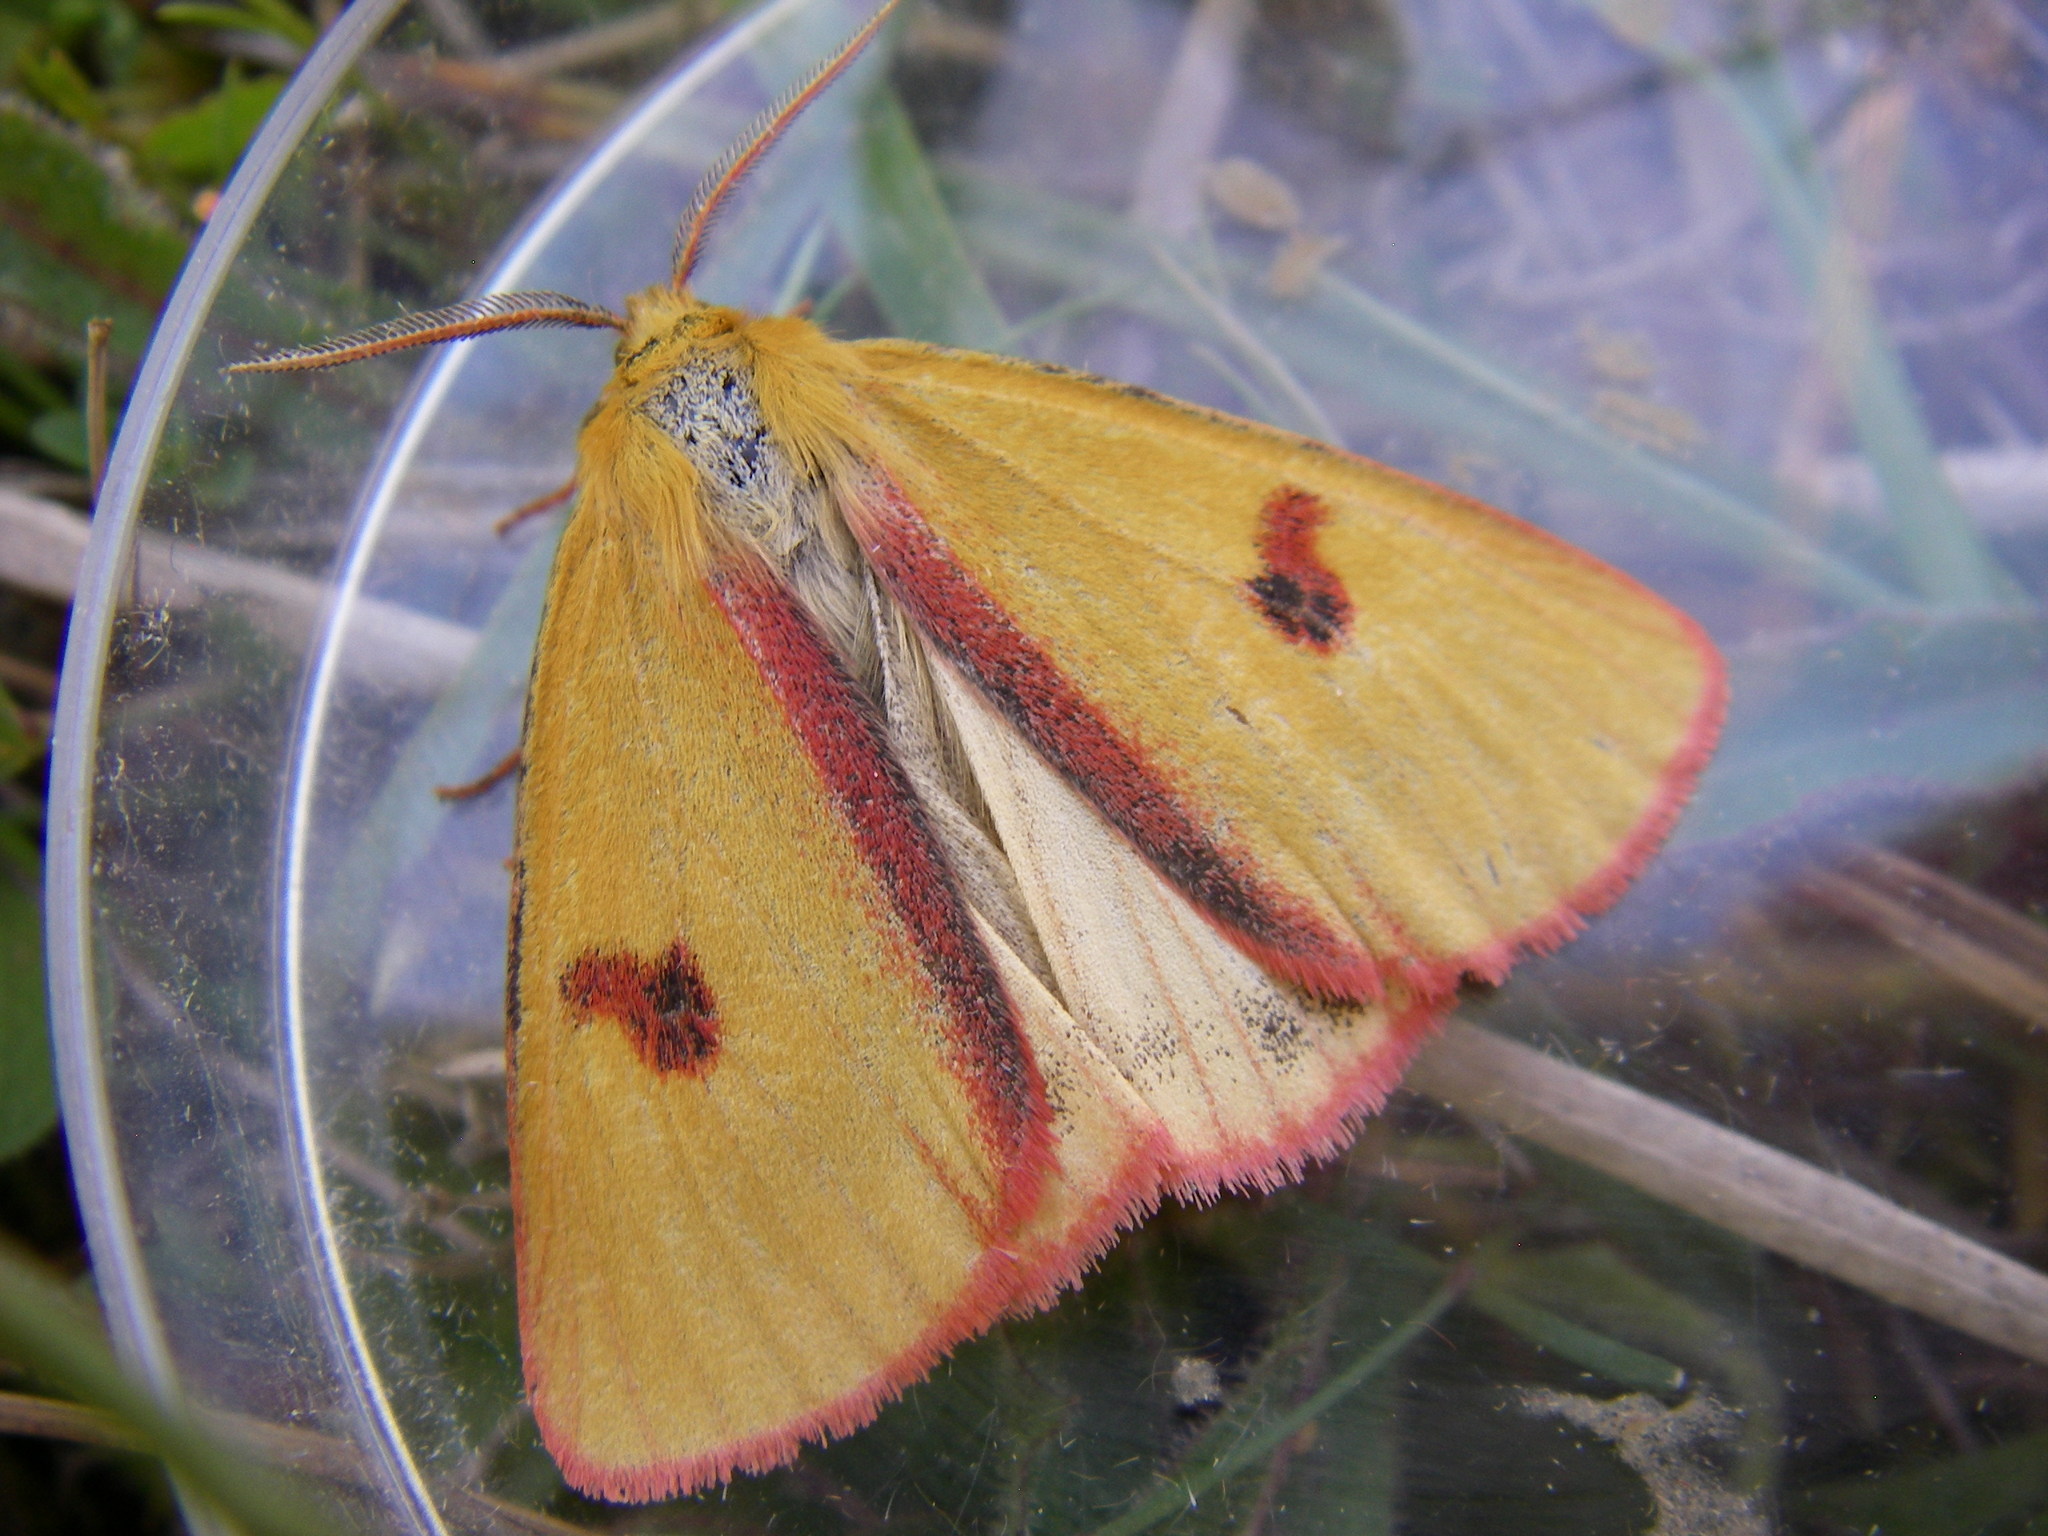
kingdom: Animalia
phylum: Arthropoda
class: Insecta
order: Lepidoptera
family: Erebidae
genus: Diacrisia
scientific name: Diacrisia sannio
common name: Clouded buff
